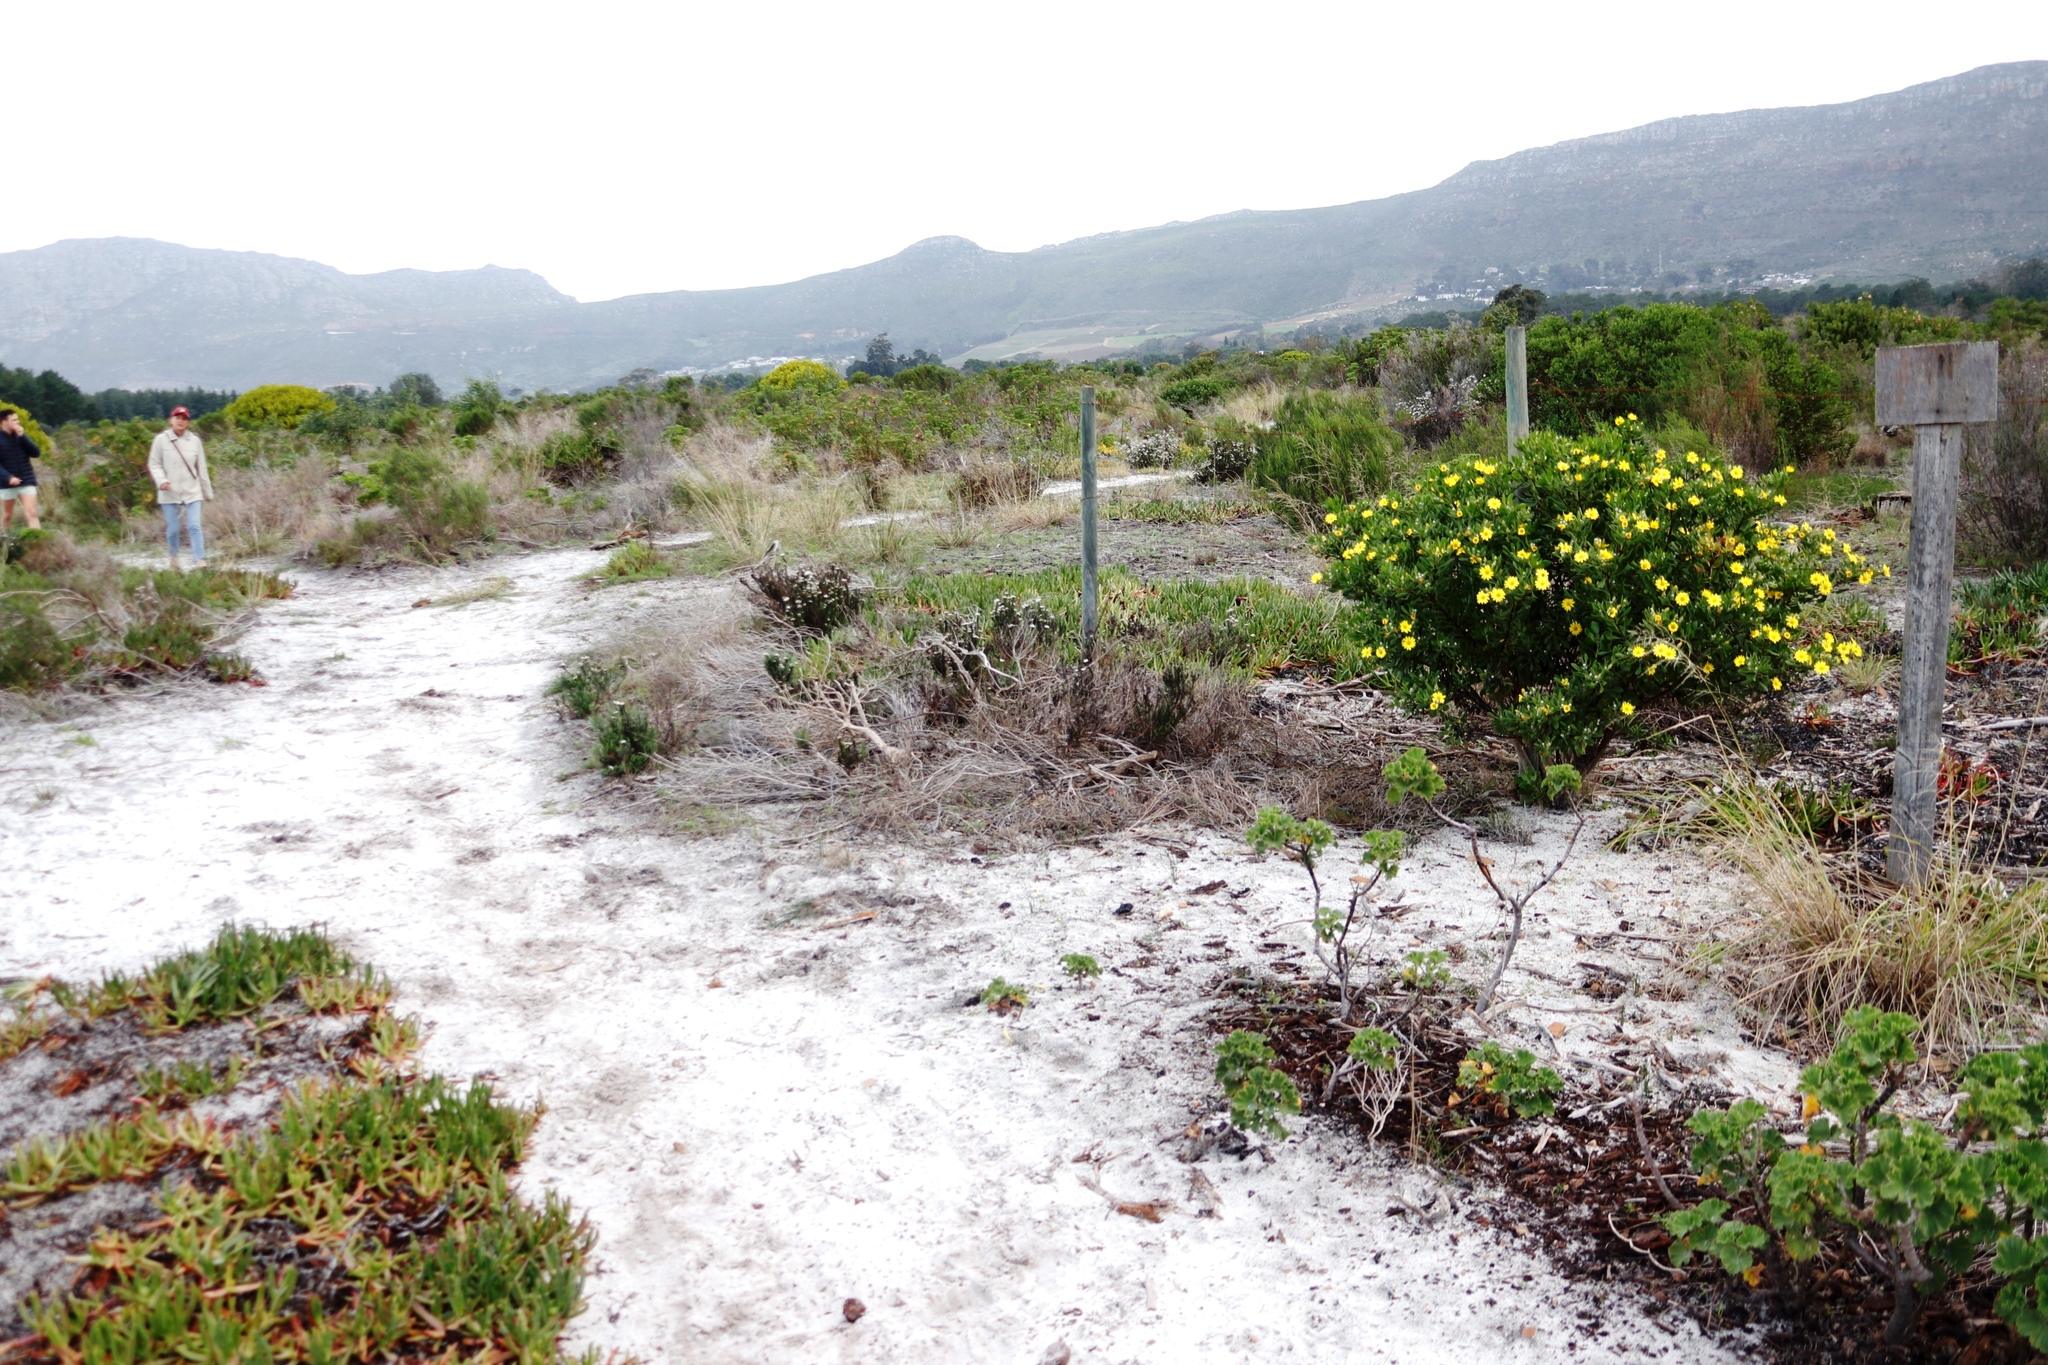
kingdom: Plantae
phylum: Tracheophyta
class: Magnoliopsida
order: Caryophyllales
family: Aizoaceae
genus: Carpobrotus
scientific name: Carpobrotus edulis
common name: Hottentot-fig
